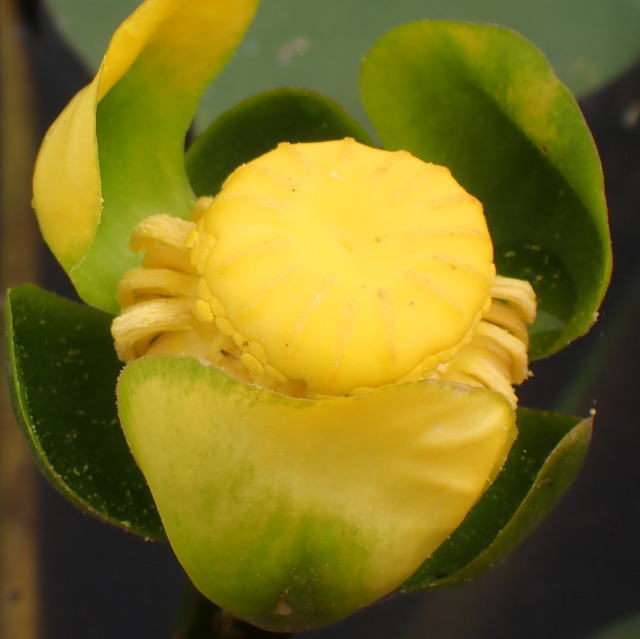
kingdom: Plantae
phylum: Tracheophyta
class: Magnoliopsida
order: Nymphaeales
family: Nymphaeaceae
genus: Nuphar
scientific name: Nuphar advena
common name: Spatter-dock
